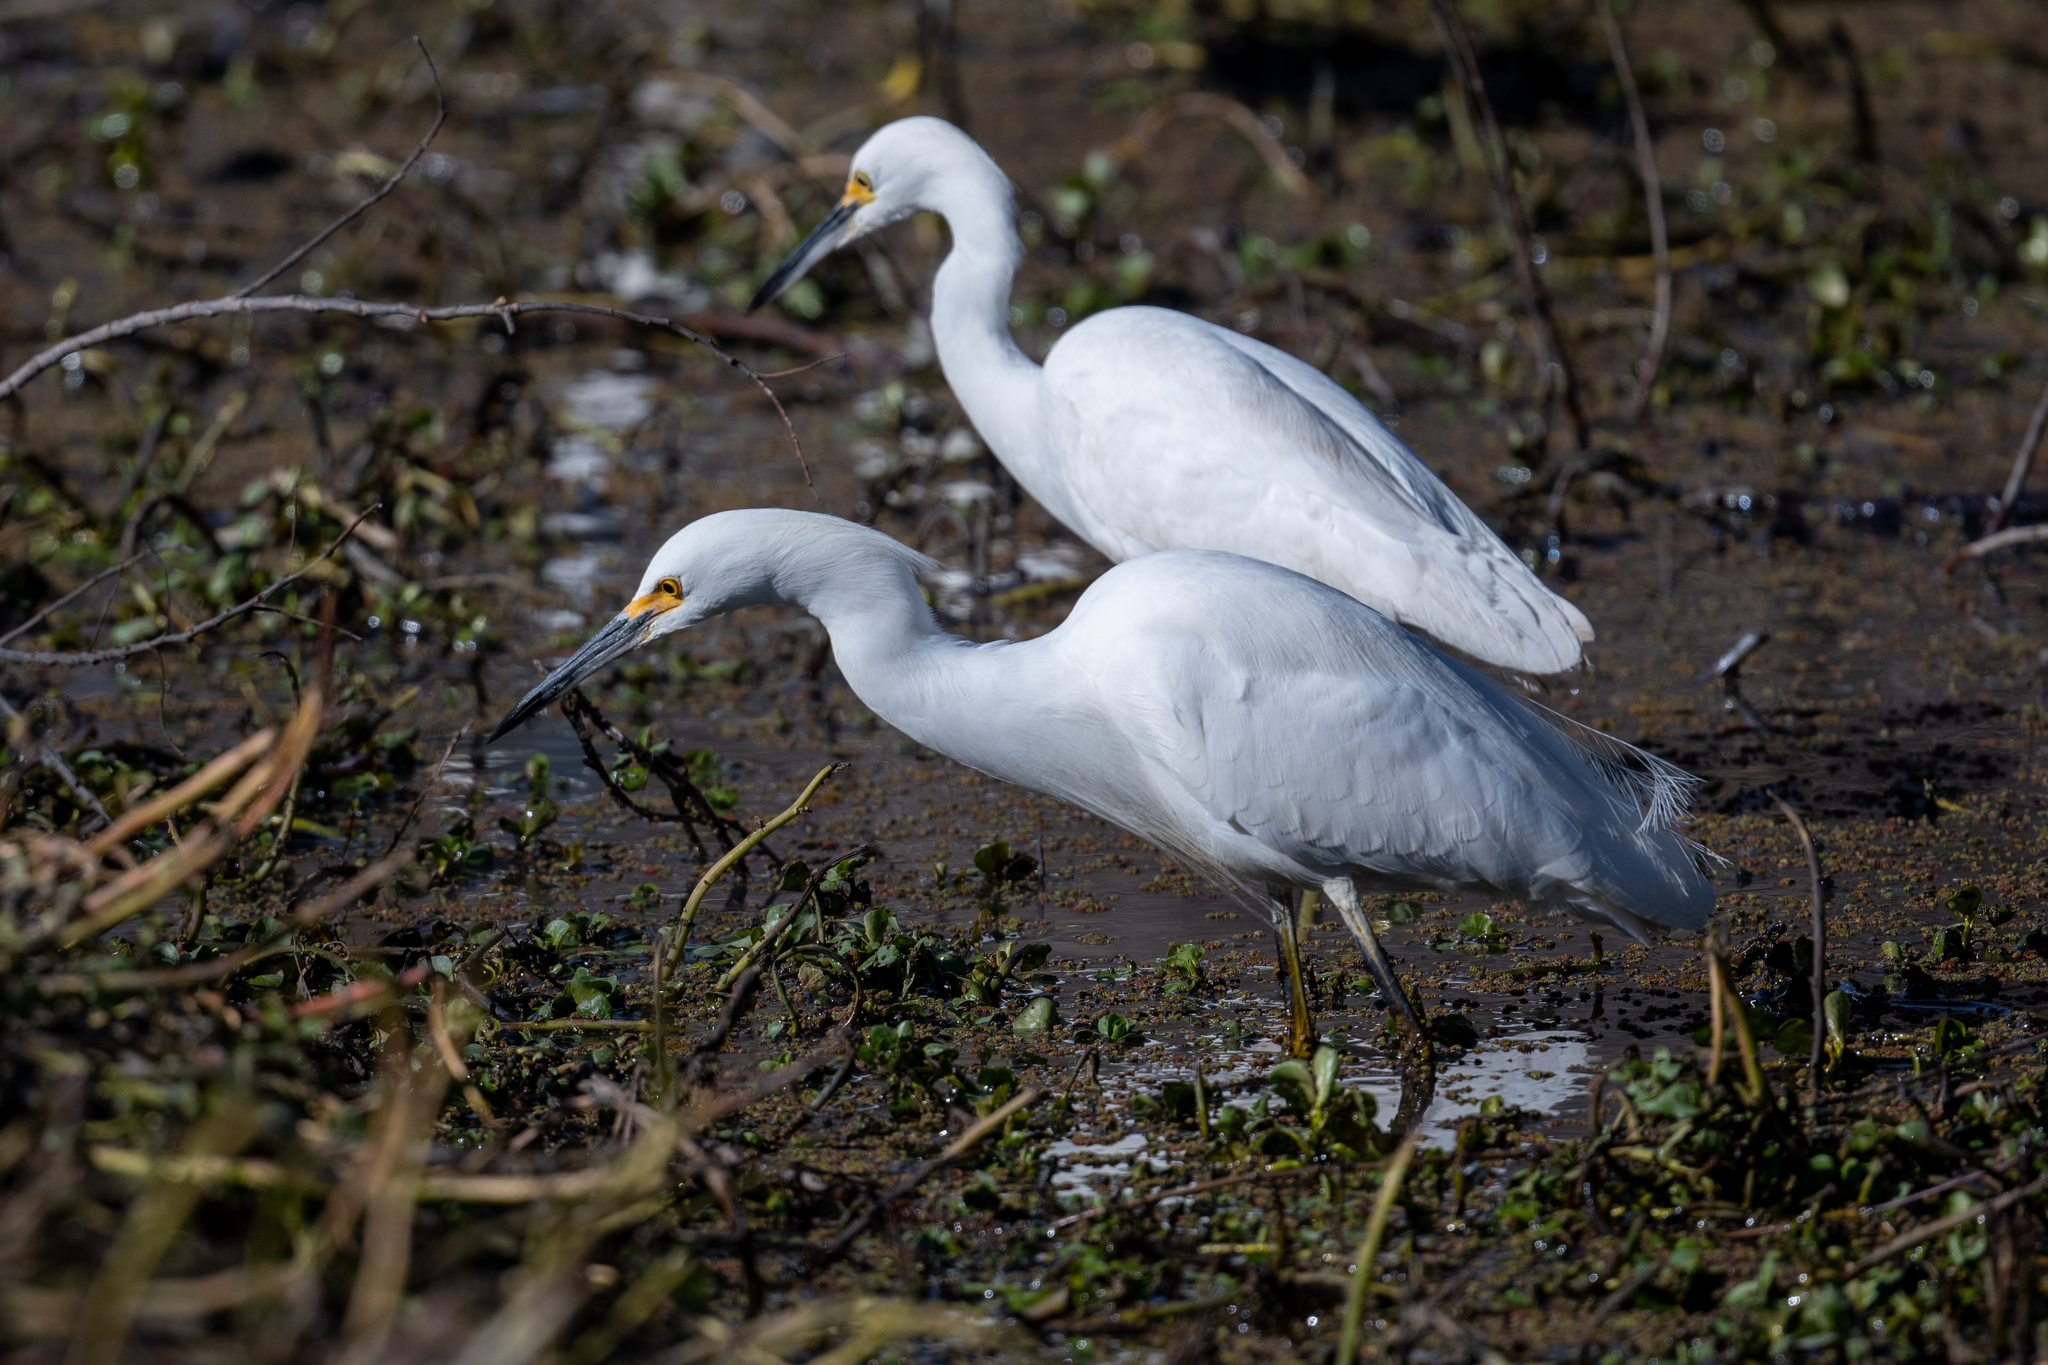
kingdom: Animalia
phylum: Chordata
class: Aves
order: Pelecaniformes
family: Ardeidae
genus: Egretta
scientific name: Egretta thula
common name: Snowy egret
